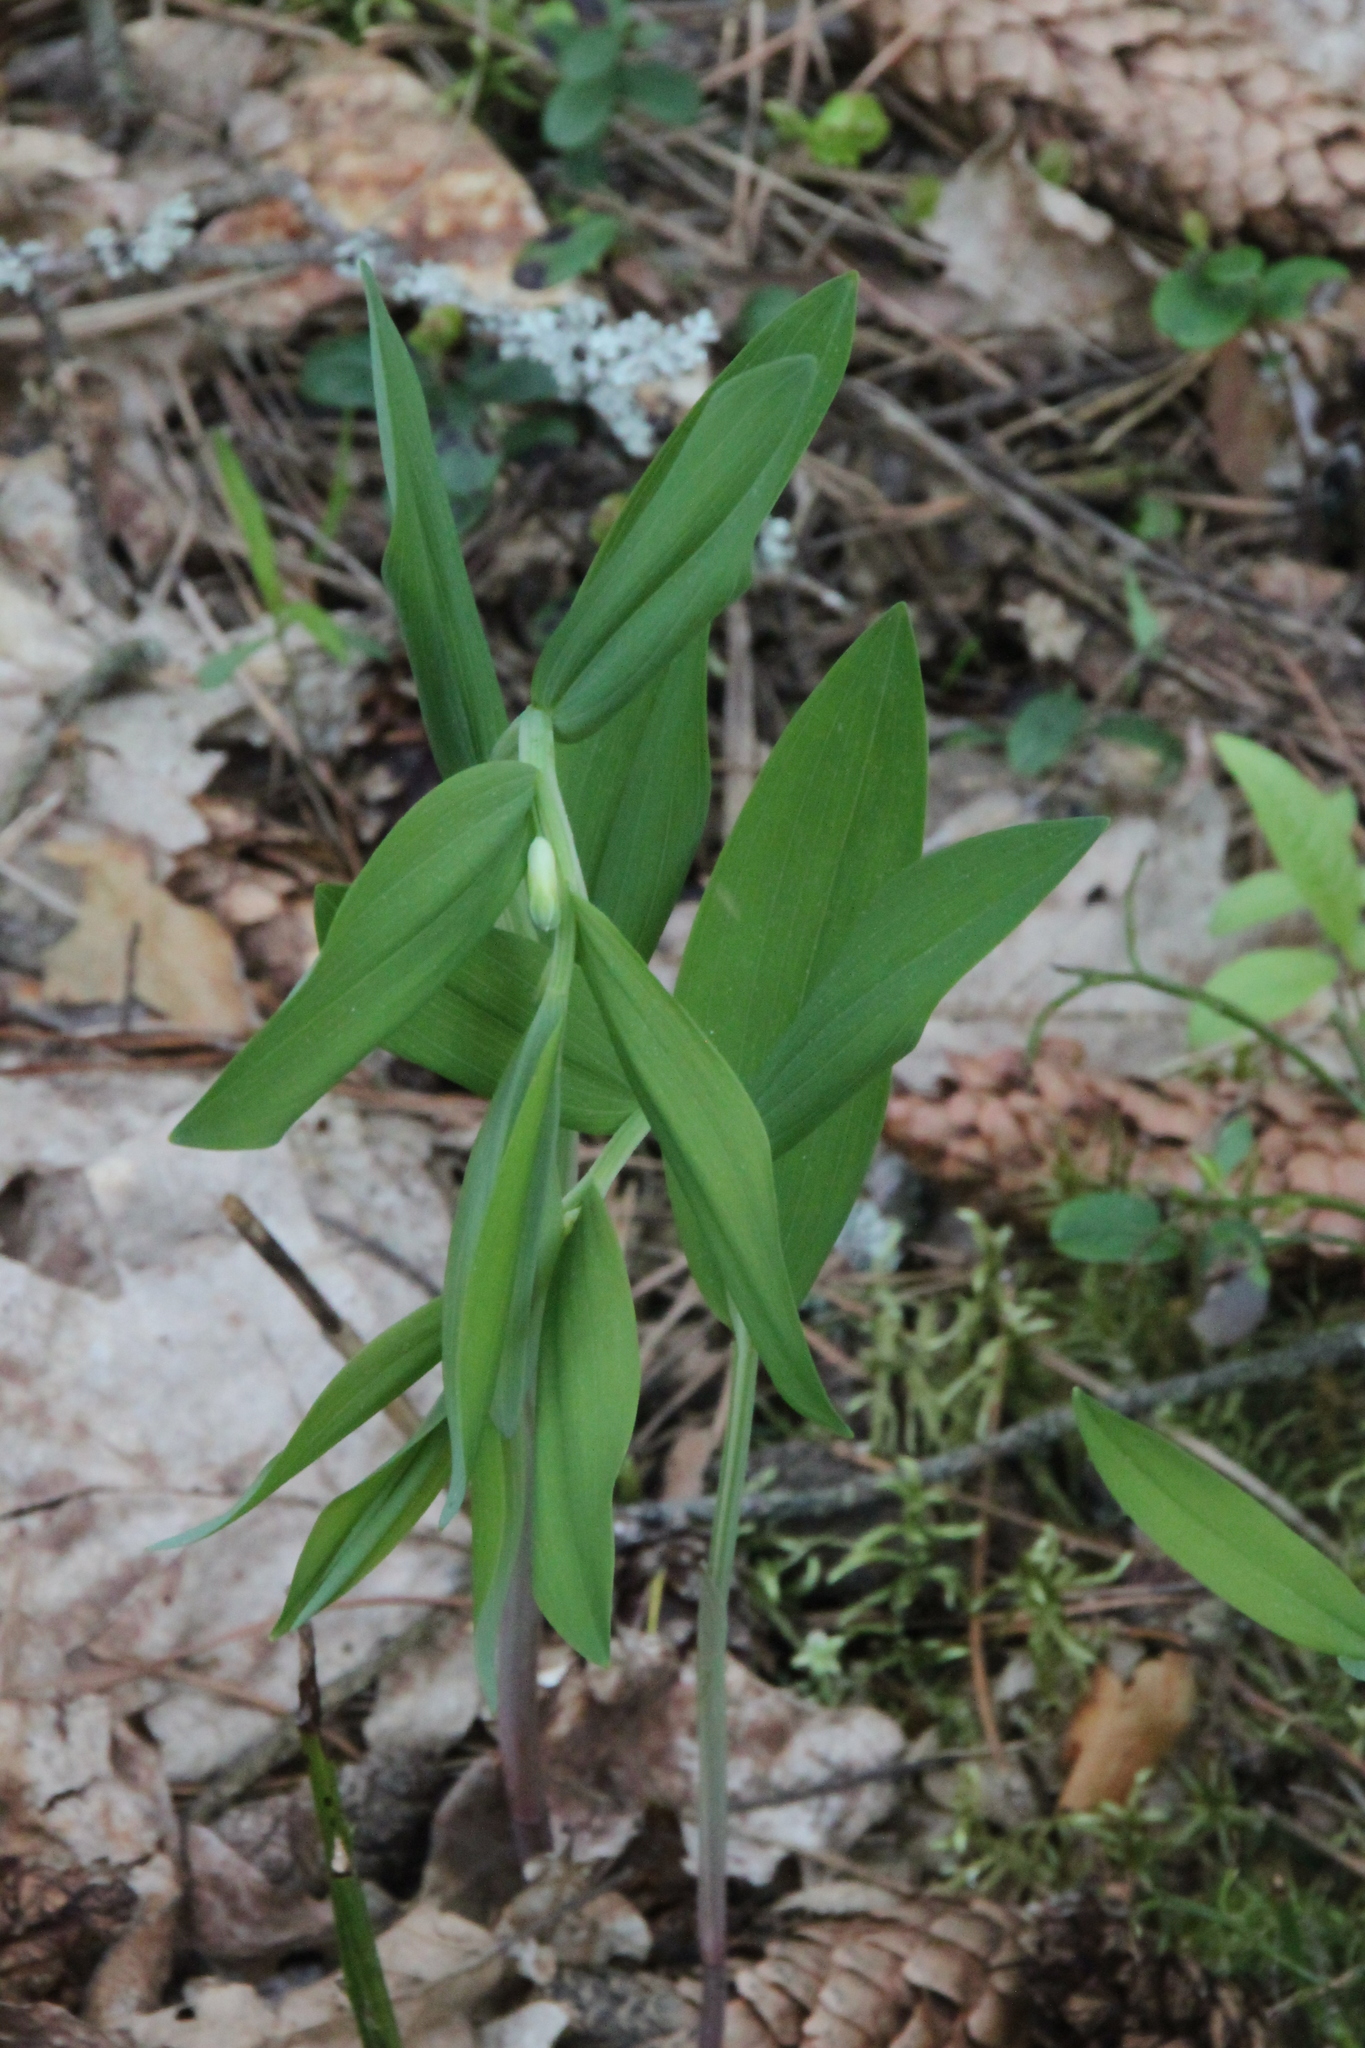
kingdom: Plantae
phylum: Tracheophyta
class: Liliopsida
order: Asparagales
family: Asparagaceae
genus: Polygonatum
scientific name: Polygonatum odoratum
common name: Angular solomon's-seal
